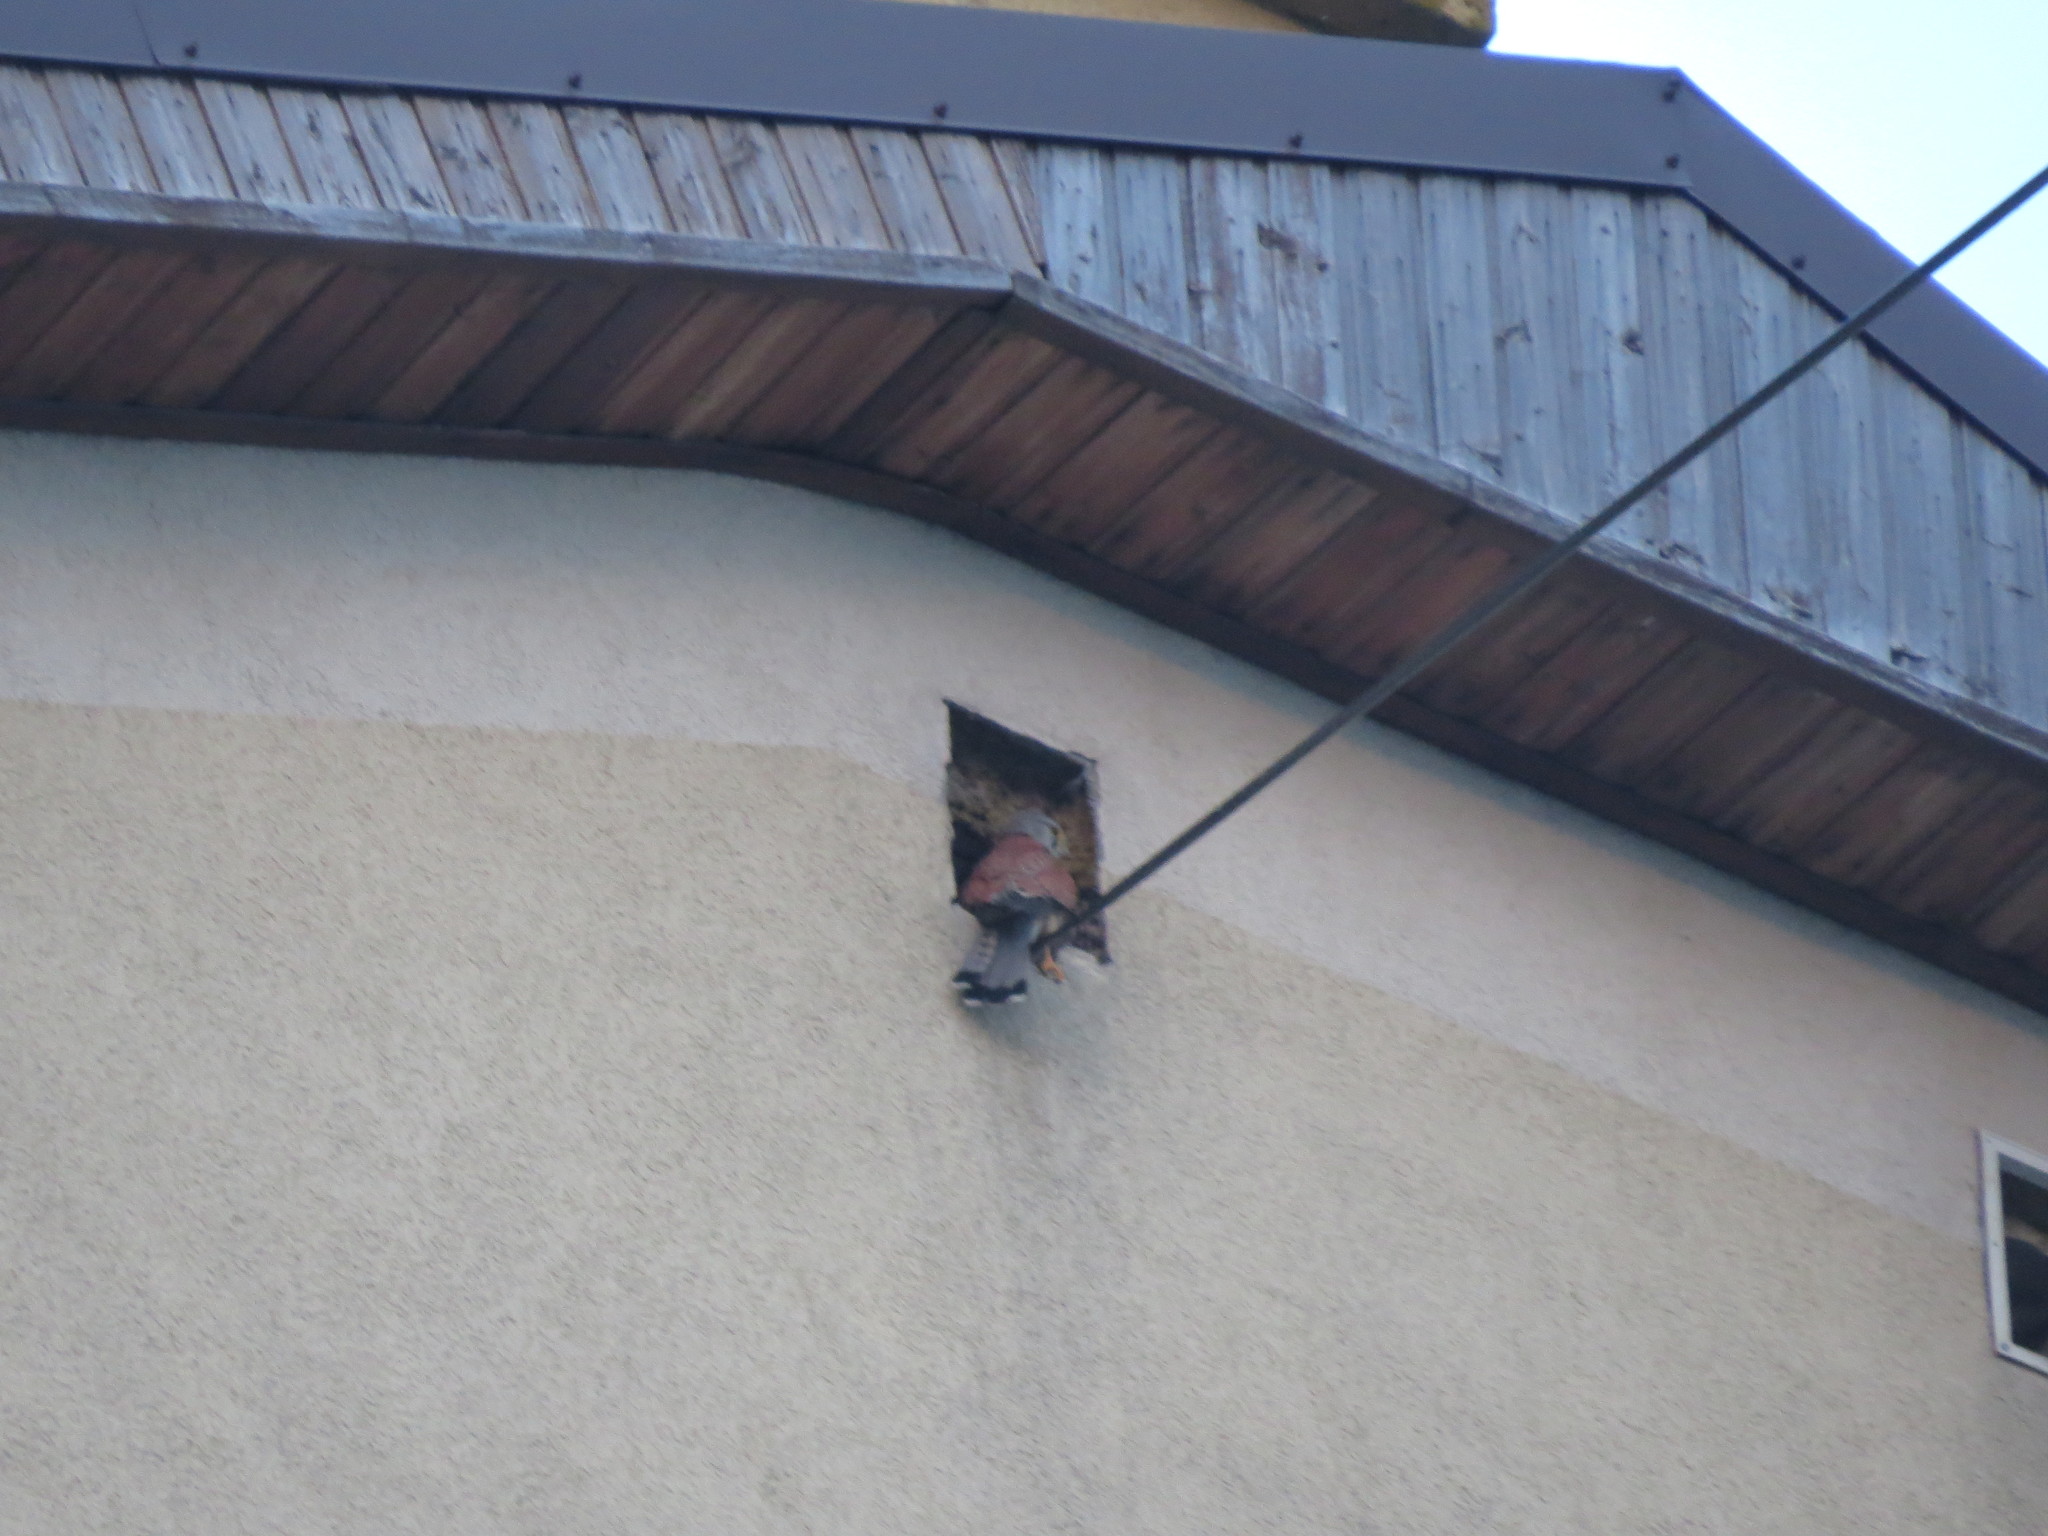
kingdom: Animalia
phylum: Chordata
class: Aves
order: Falconiformes
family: Falconidae
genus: Falco
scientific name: Falco tinnunculus
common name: Common kestrel
